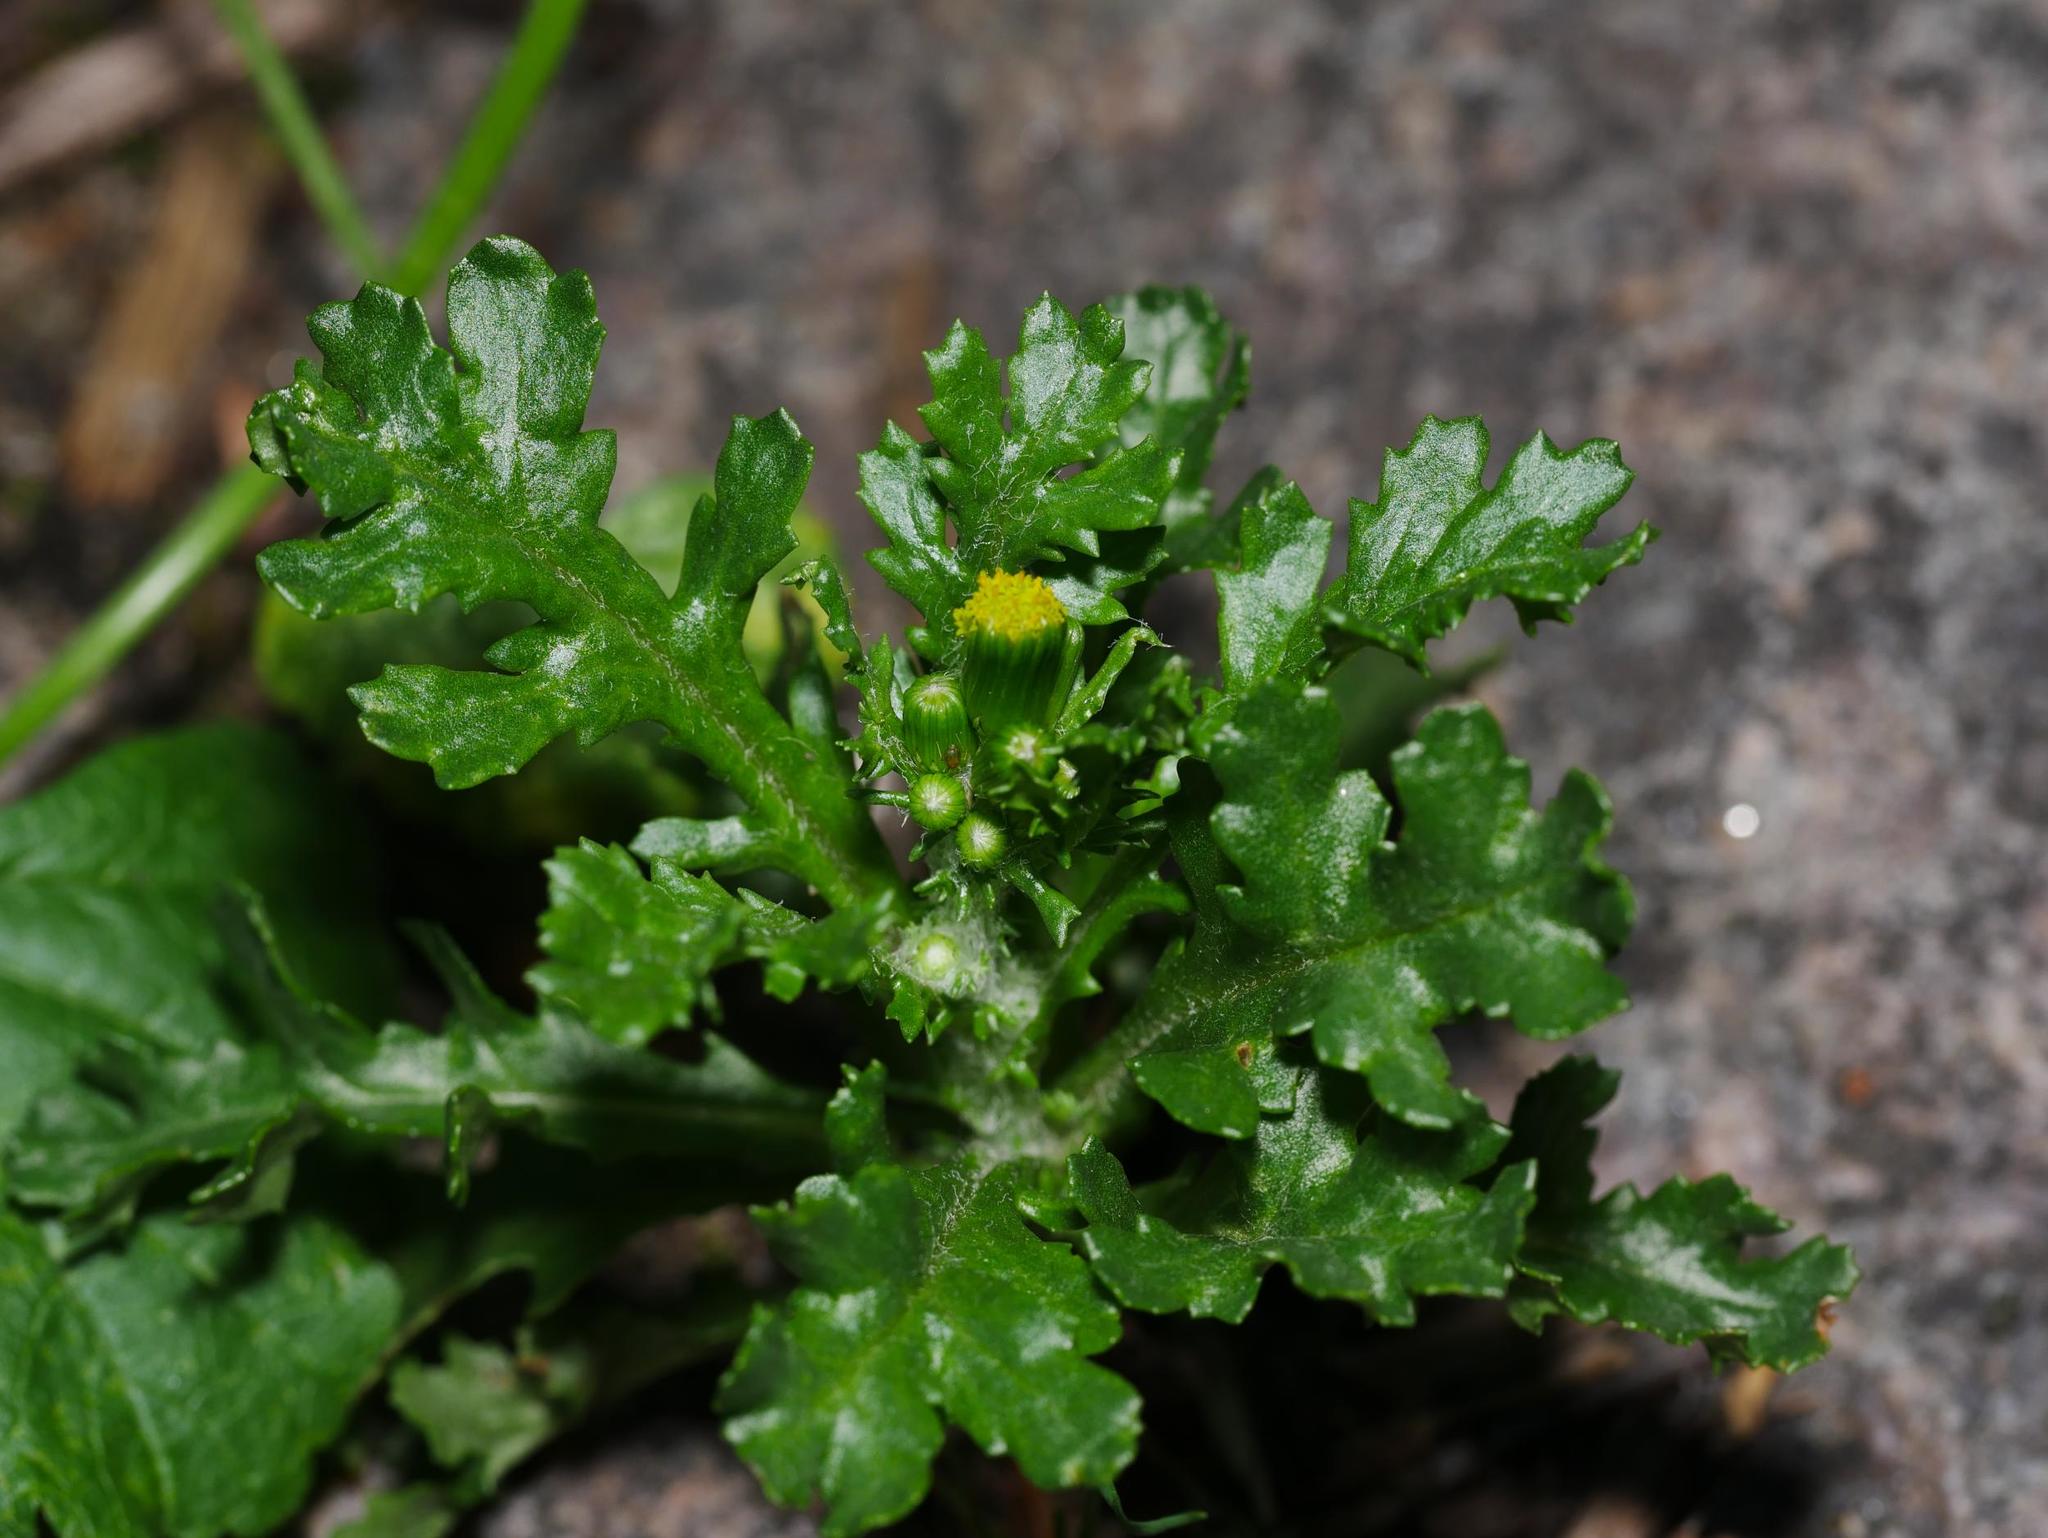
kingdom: Plantae
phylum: Tracheophyta
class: Magnoliopsida
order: Asterales
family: Asteraceae
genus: Senecio
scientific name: Senecio vulgaris
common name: Old-man-in-the-spring
